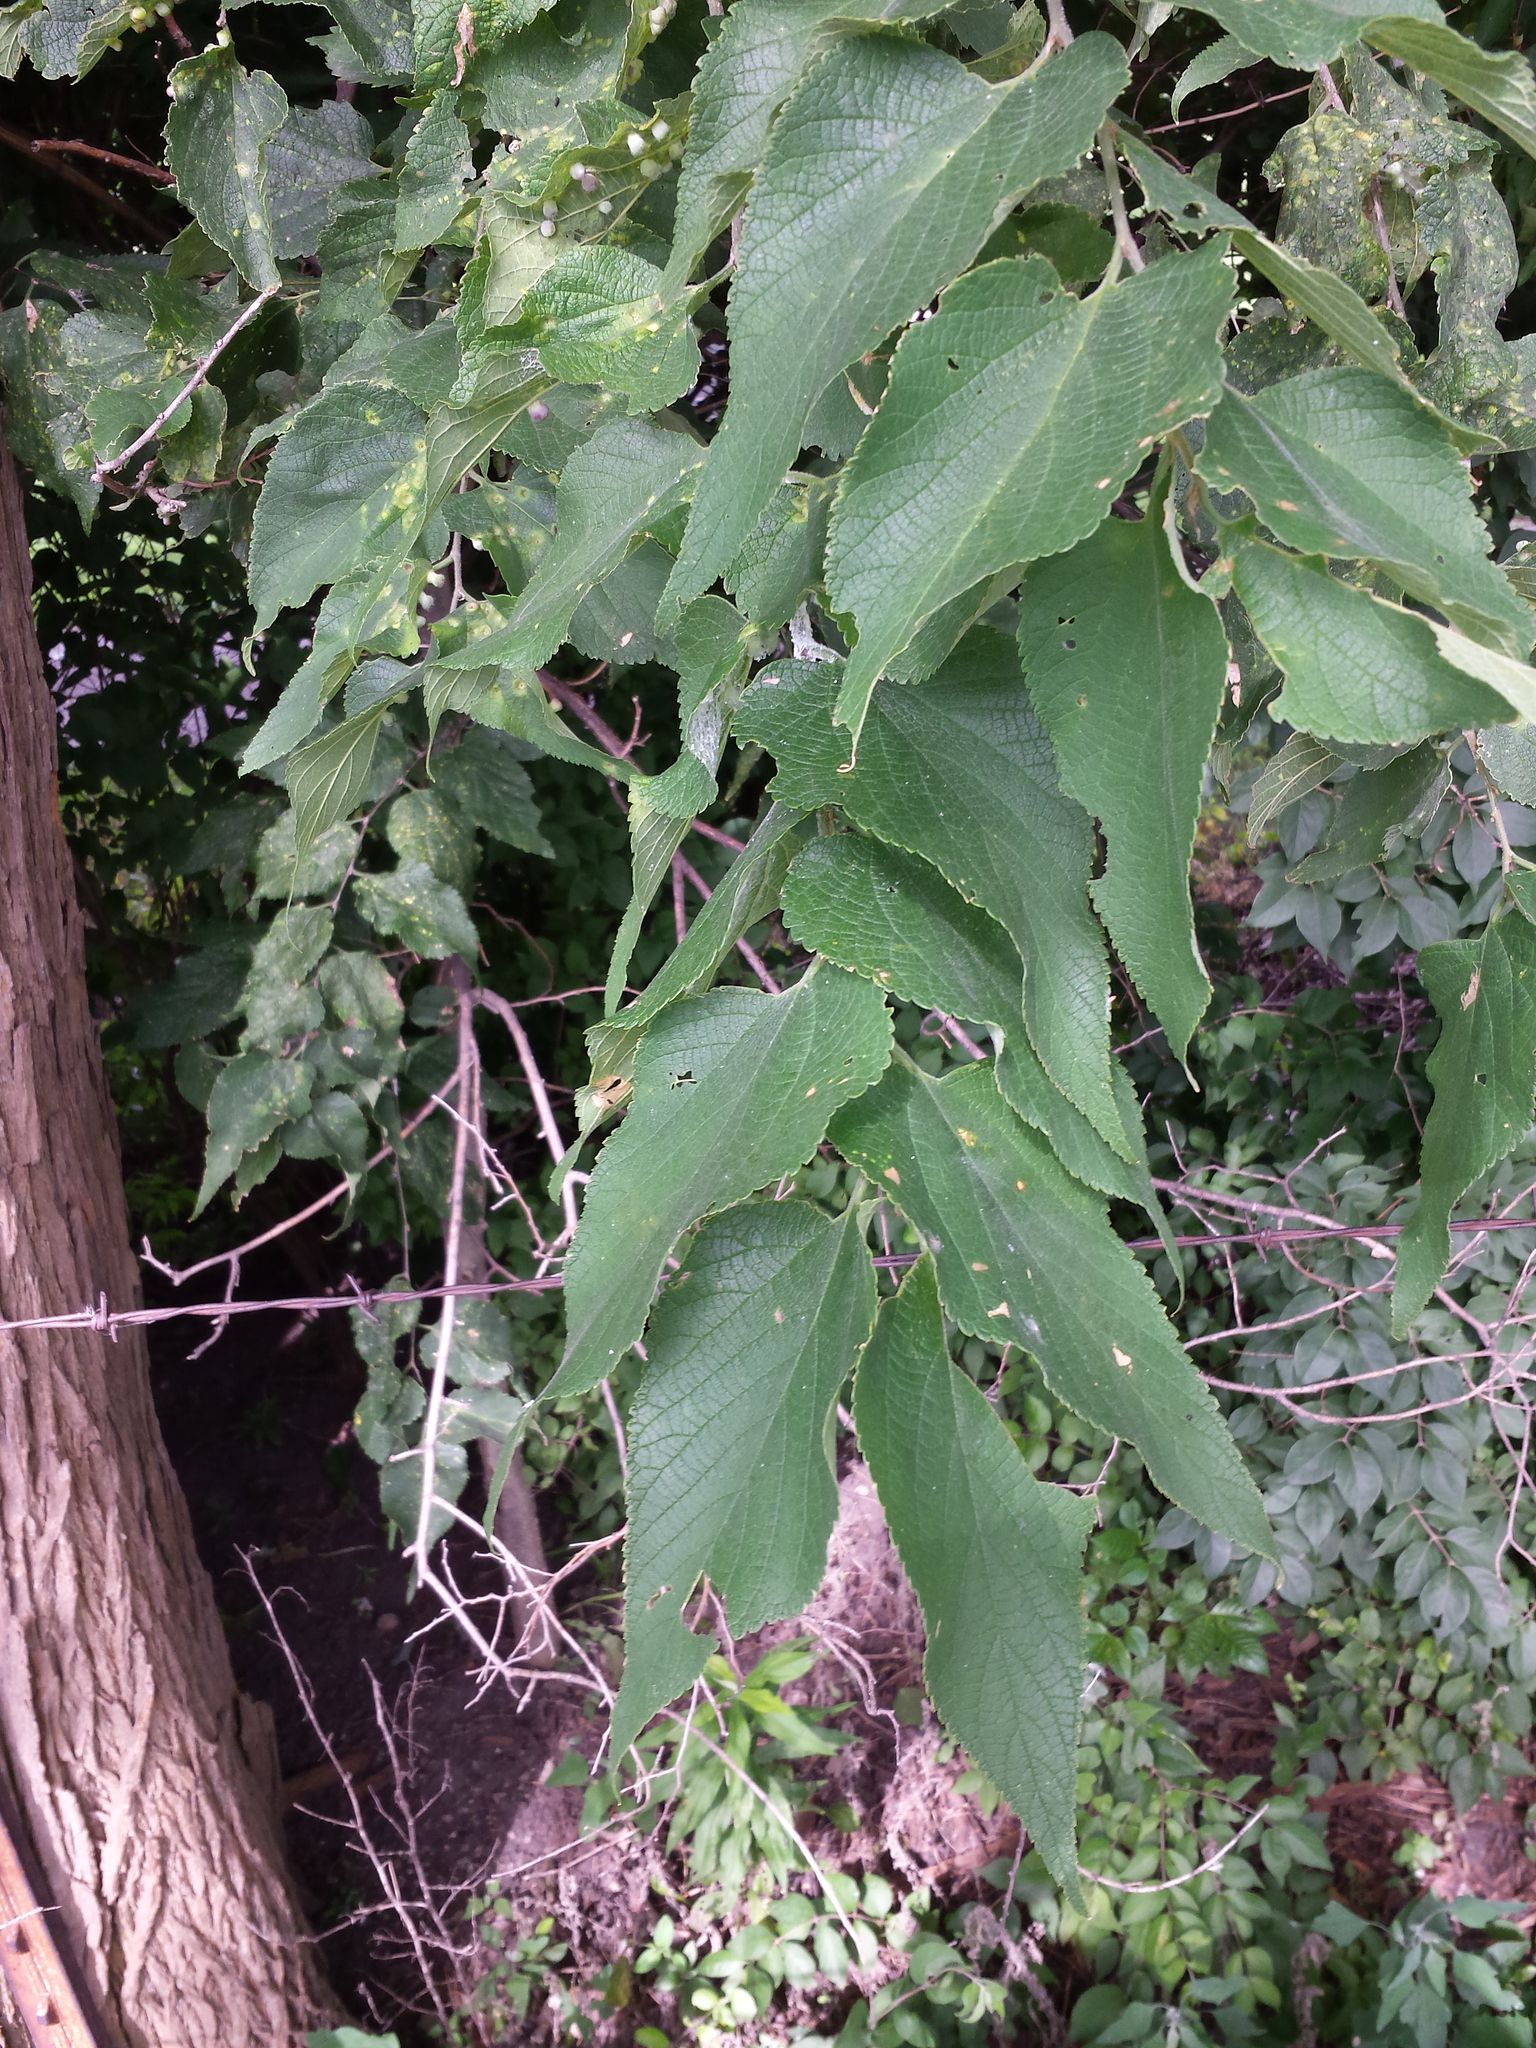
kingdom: Plantae
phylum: Tracheophyta
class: Magnoliopsida
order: Rosales
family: Cannabaceae
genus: Celtis
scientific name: Celtis occidentalis
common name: Common hackberry
